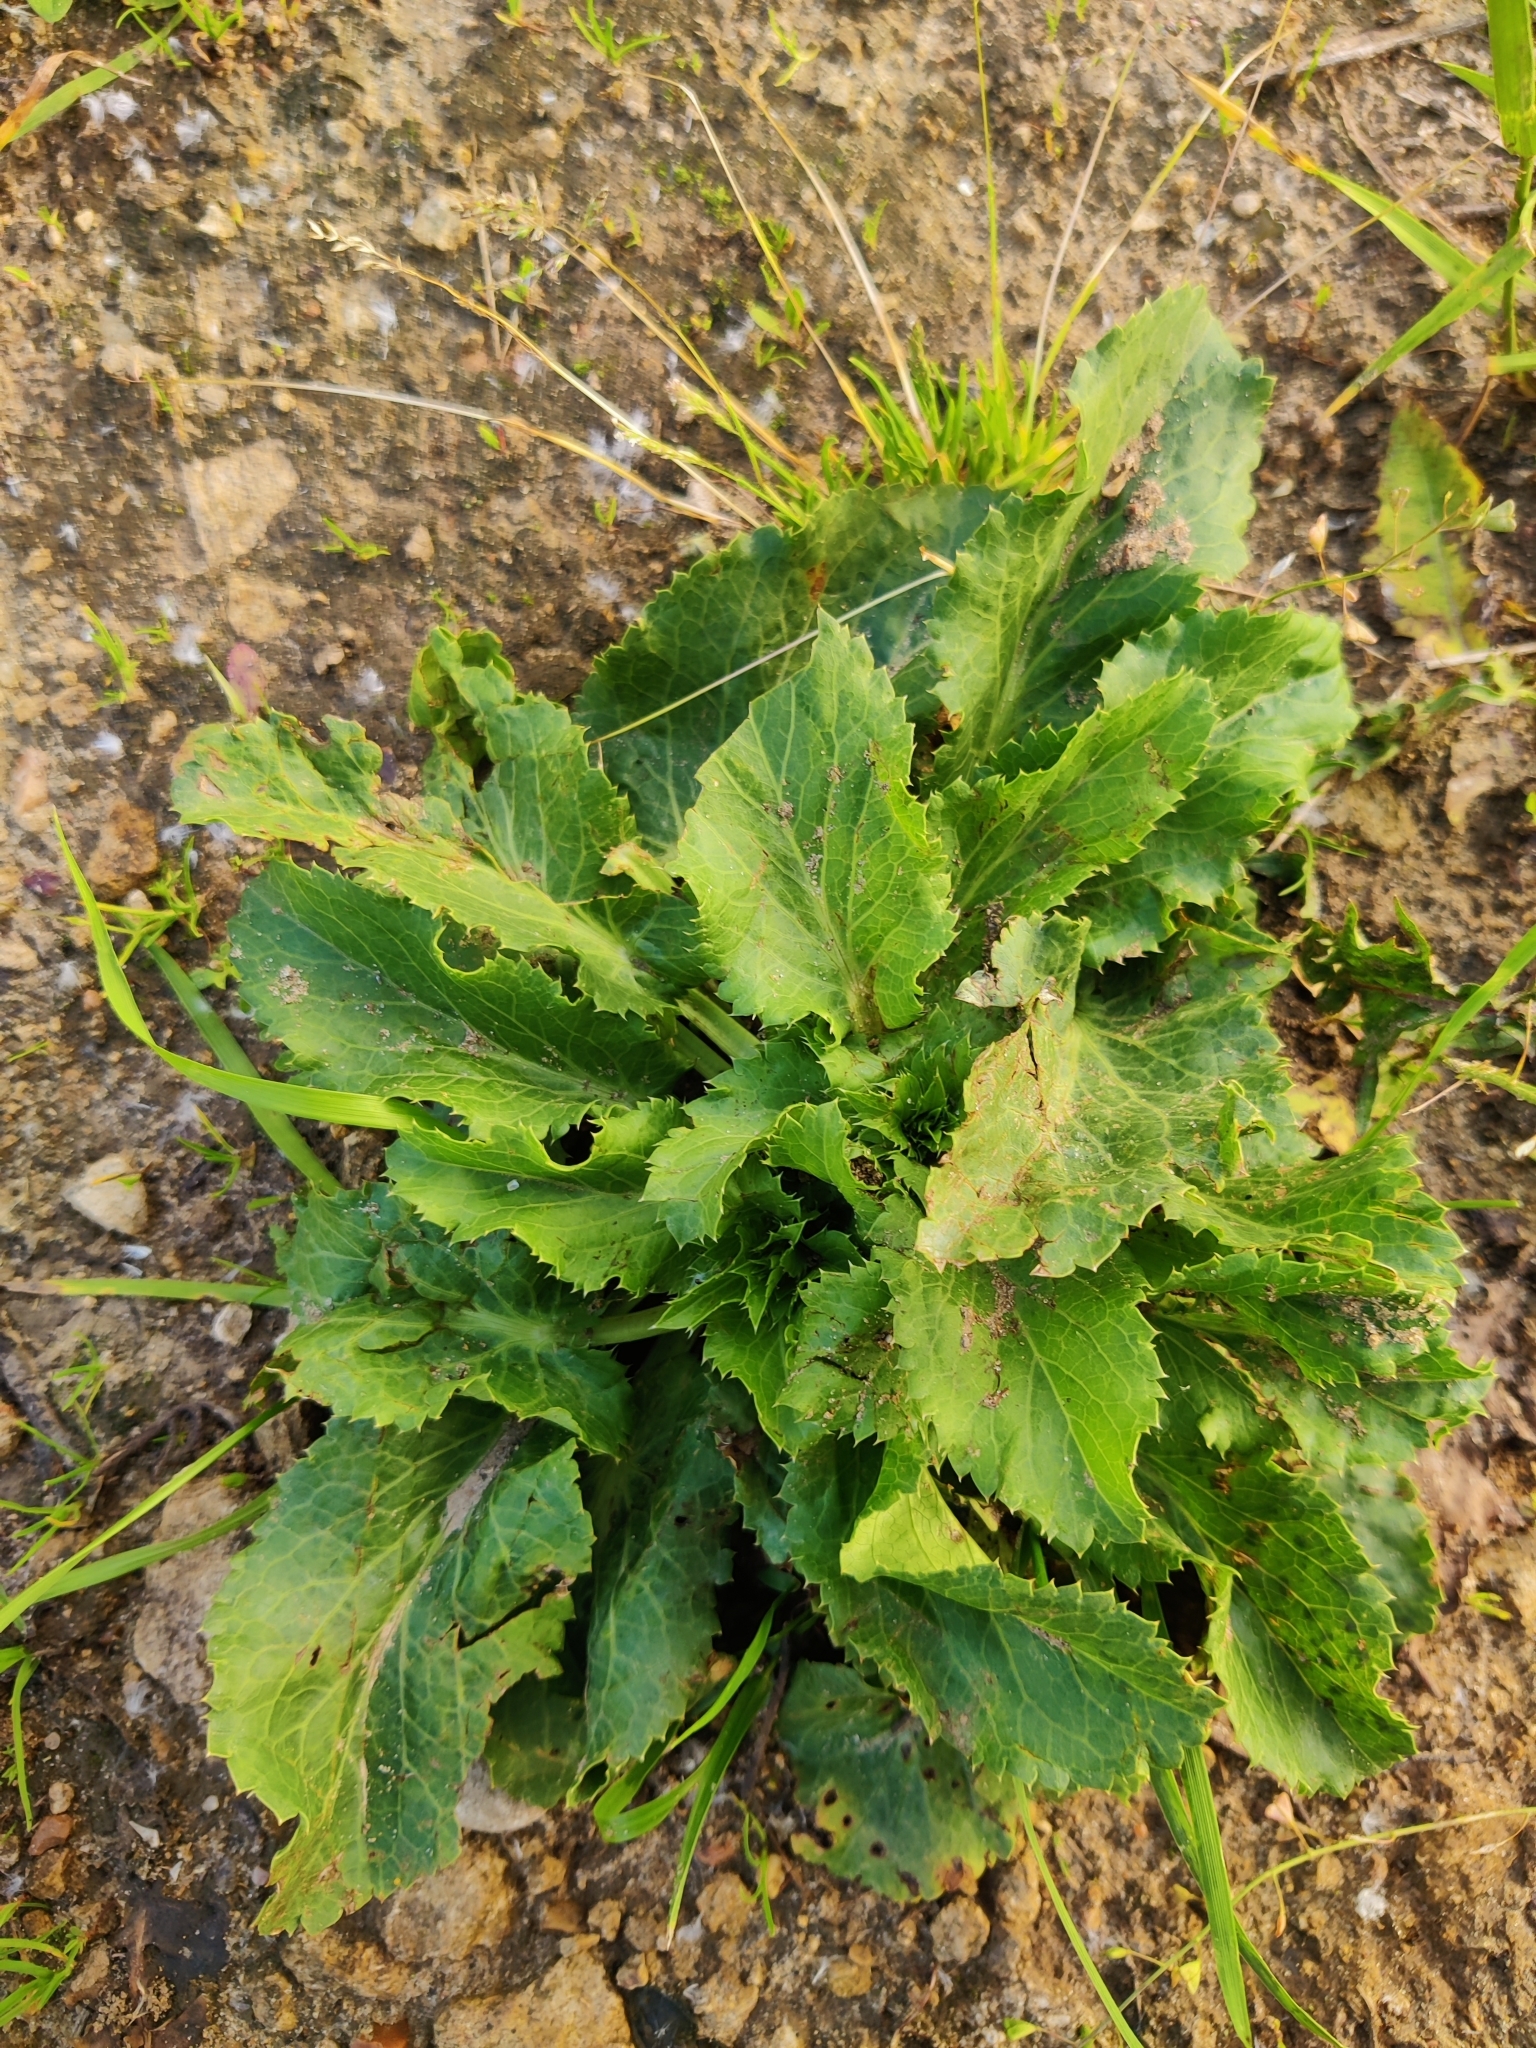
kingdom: Plantae
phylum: Tracheophyta
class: Magnoliopsida
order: Apiales
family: Apiaceae
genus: Eryngium
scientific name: Eryngium planum
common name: Blue eryngo
